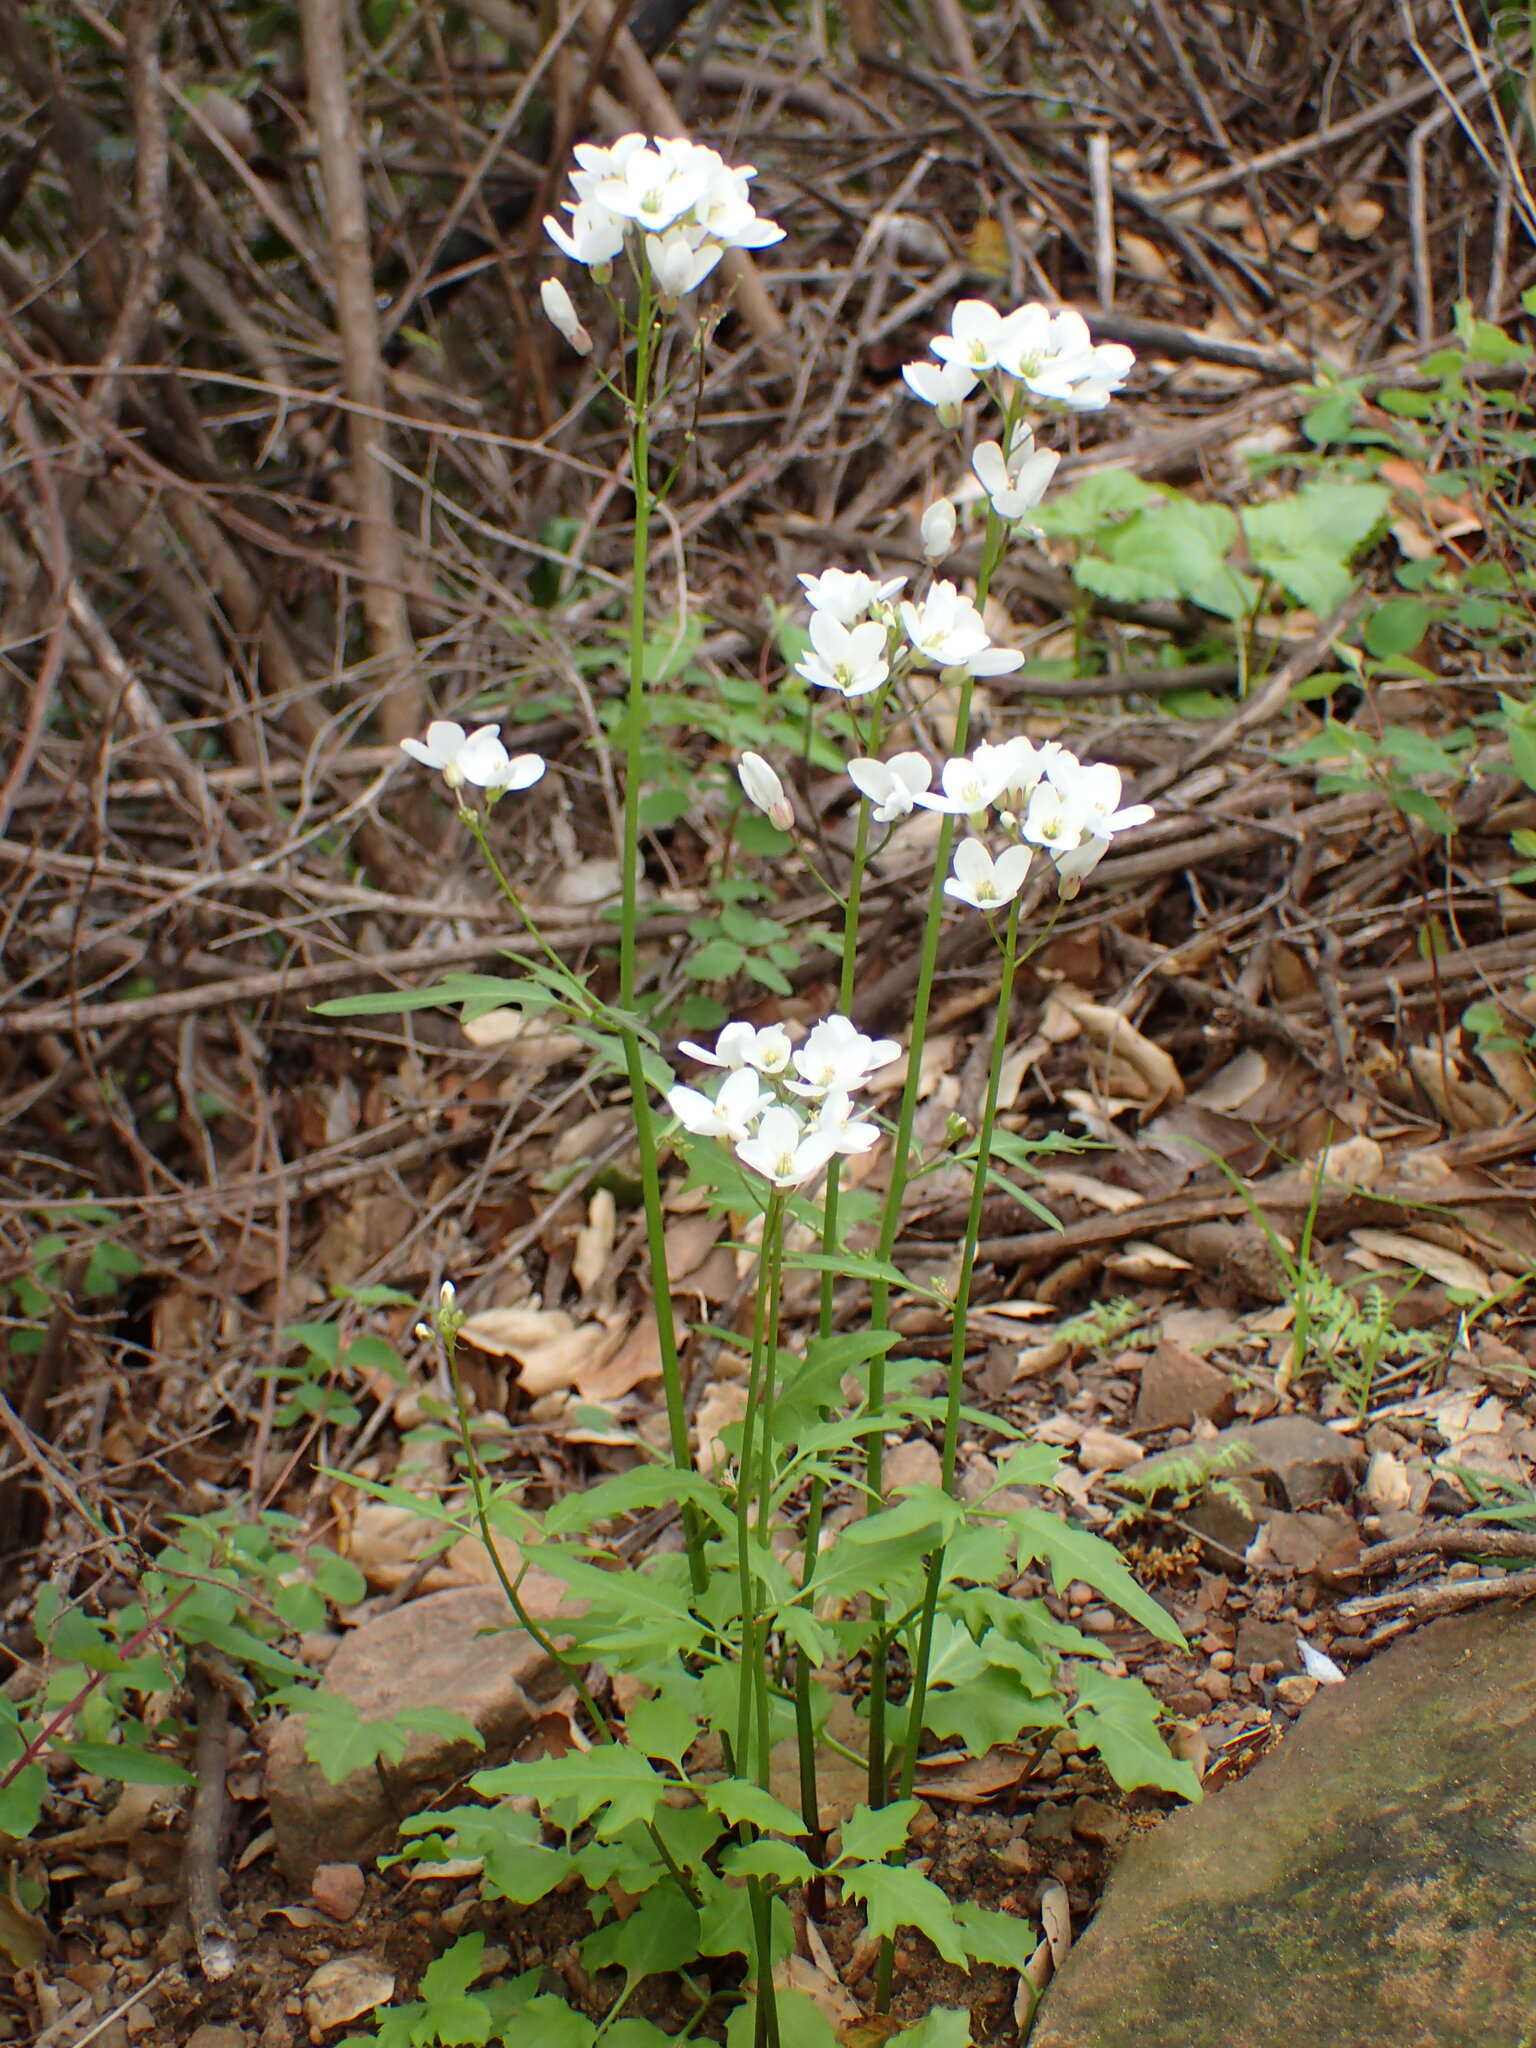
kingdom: Plantae
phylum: Tracheophyta
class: Magnoliopsida
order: Brassicales
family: Brassicaceae
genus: Cardamine
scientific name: Cardamine californica
